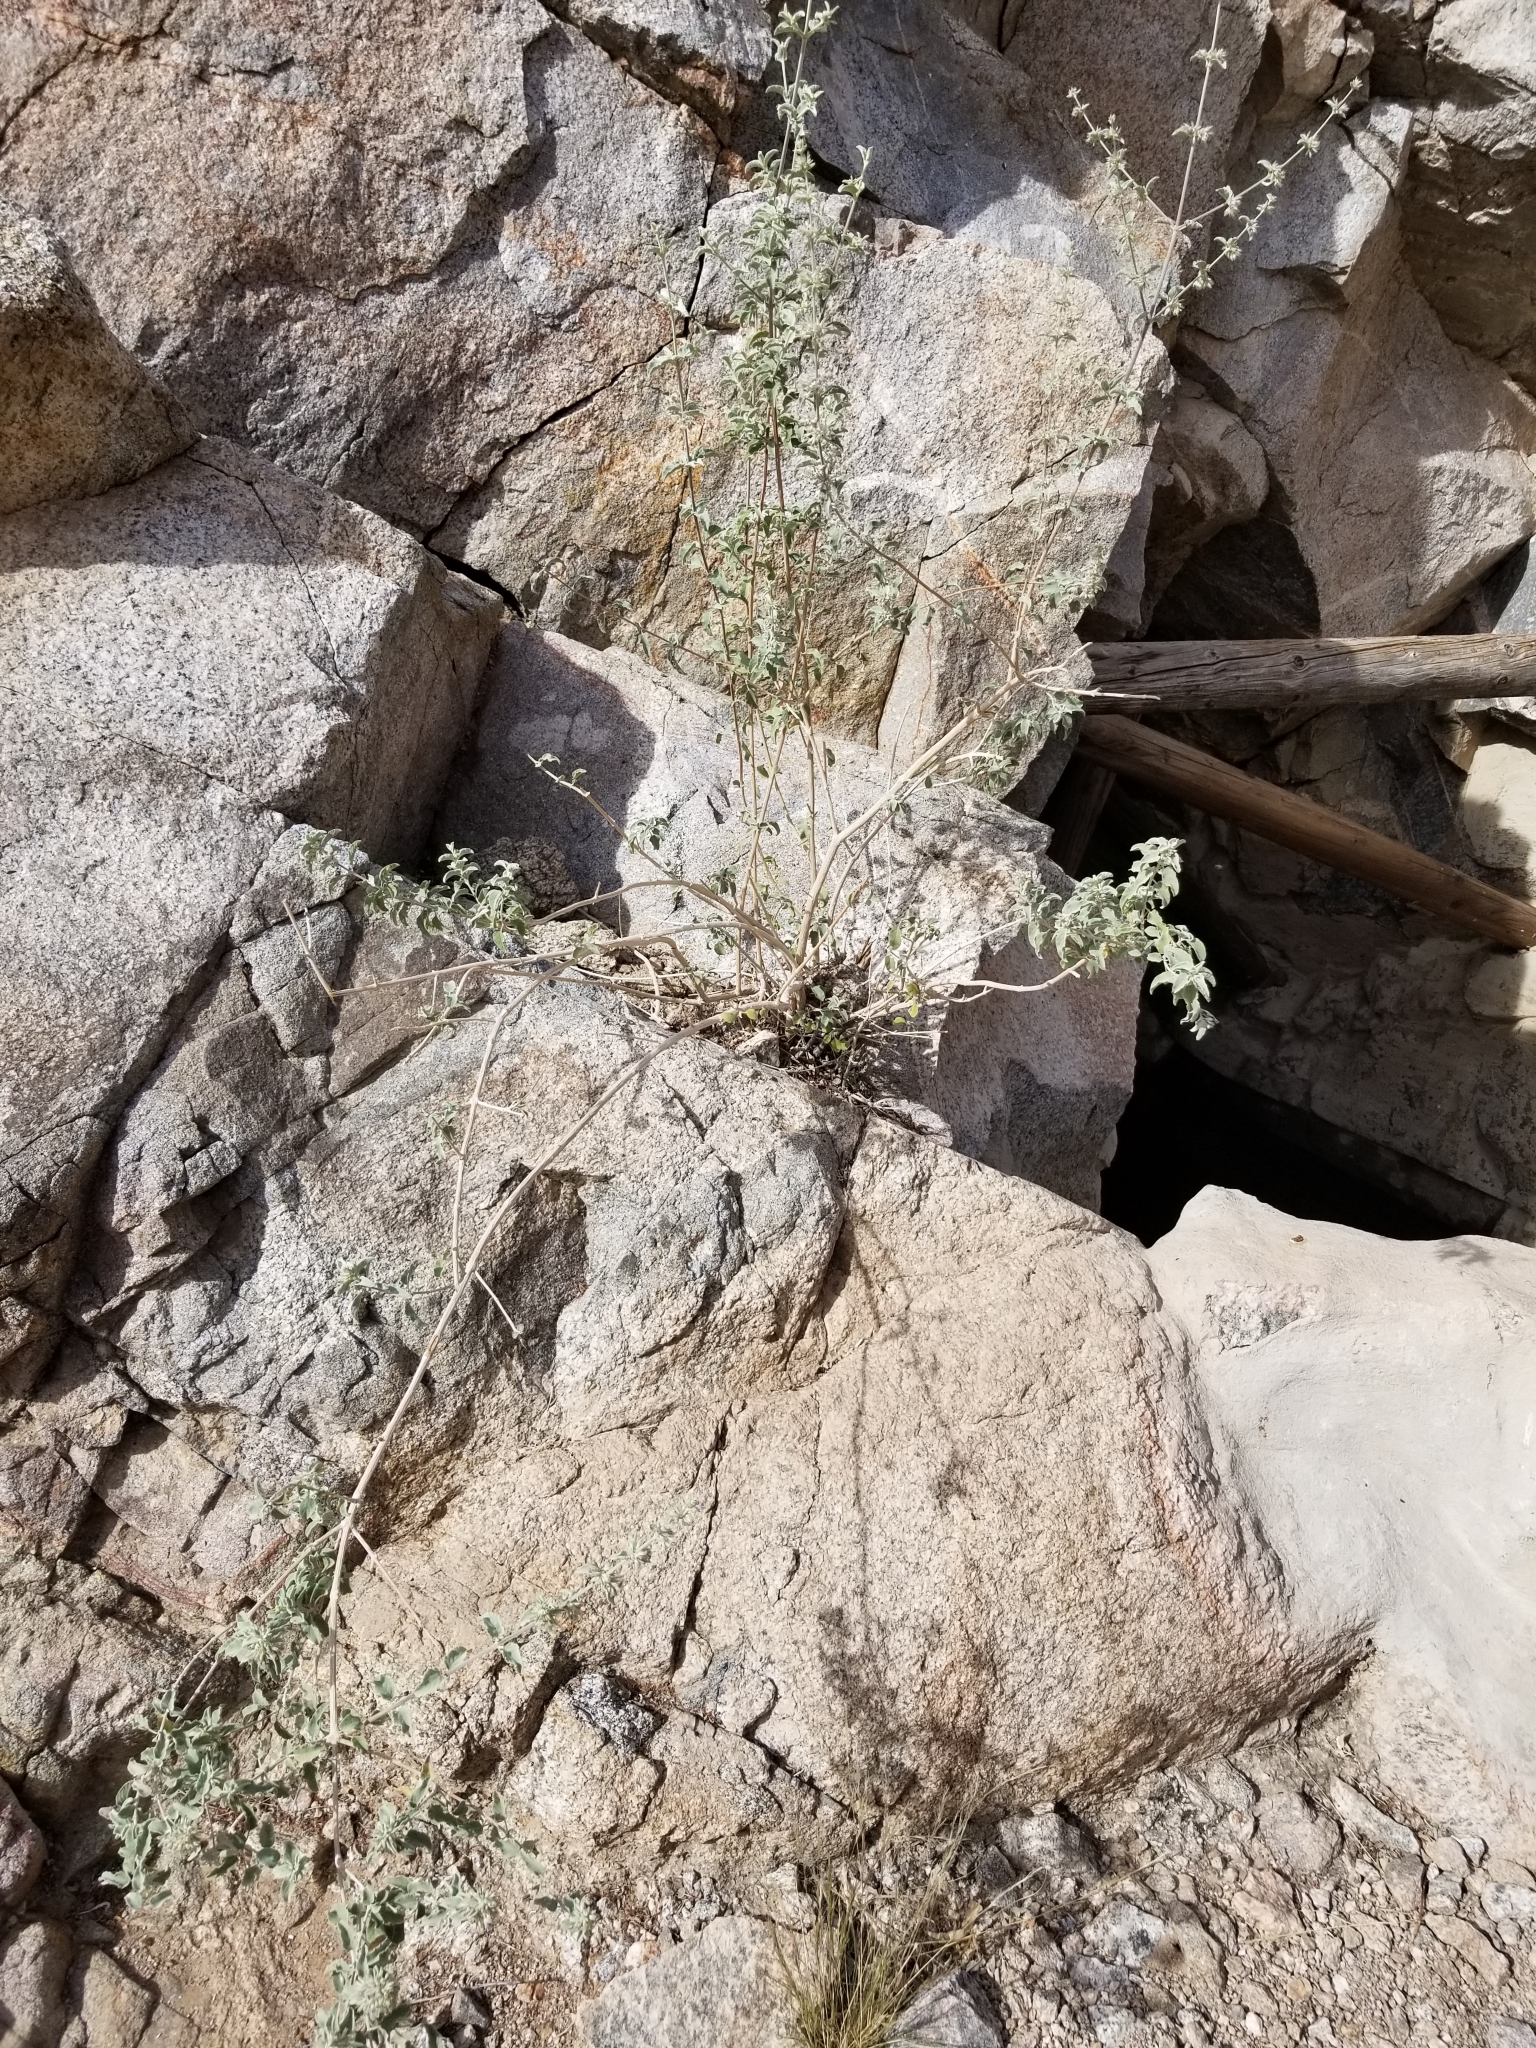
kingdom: Plantae
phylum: Tracheophyta
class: Magnoliopsida
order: Lamiales
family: Lamiaceae
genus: Condea
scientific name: Condea emoryi
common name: Chia
